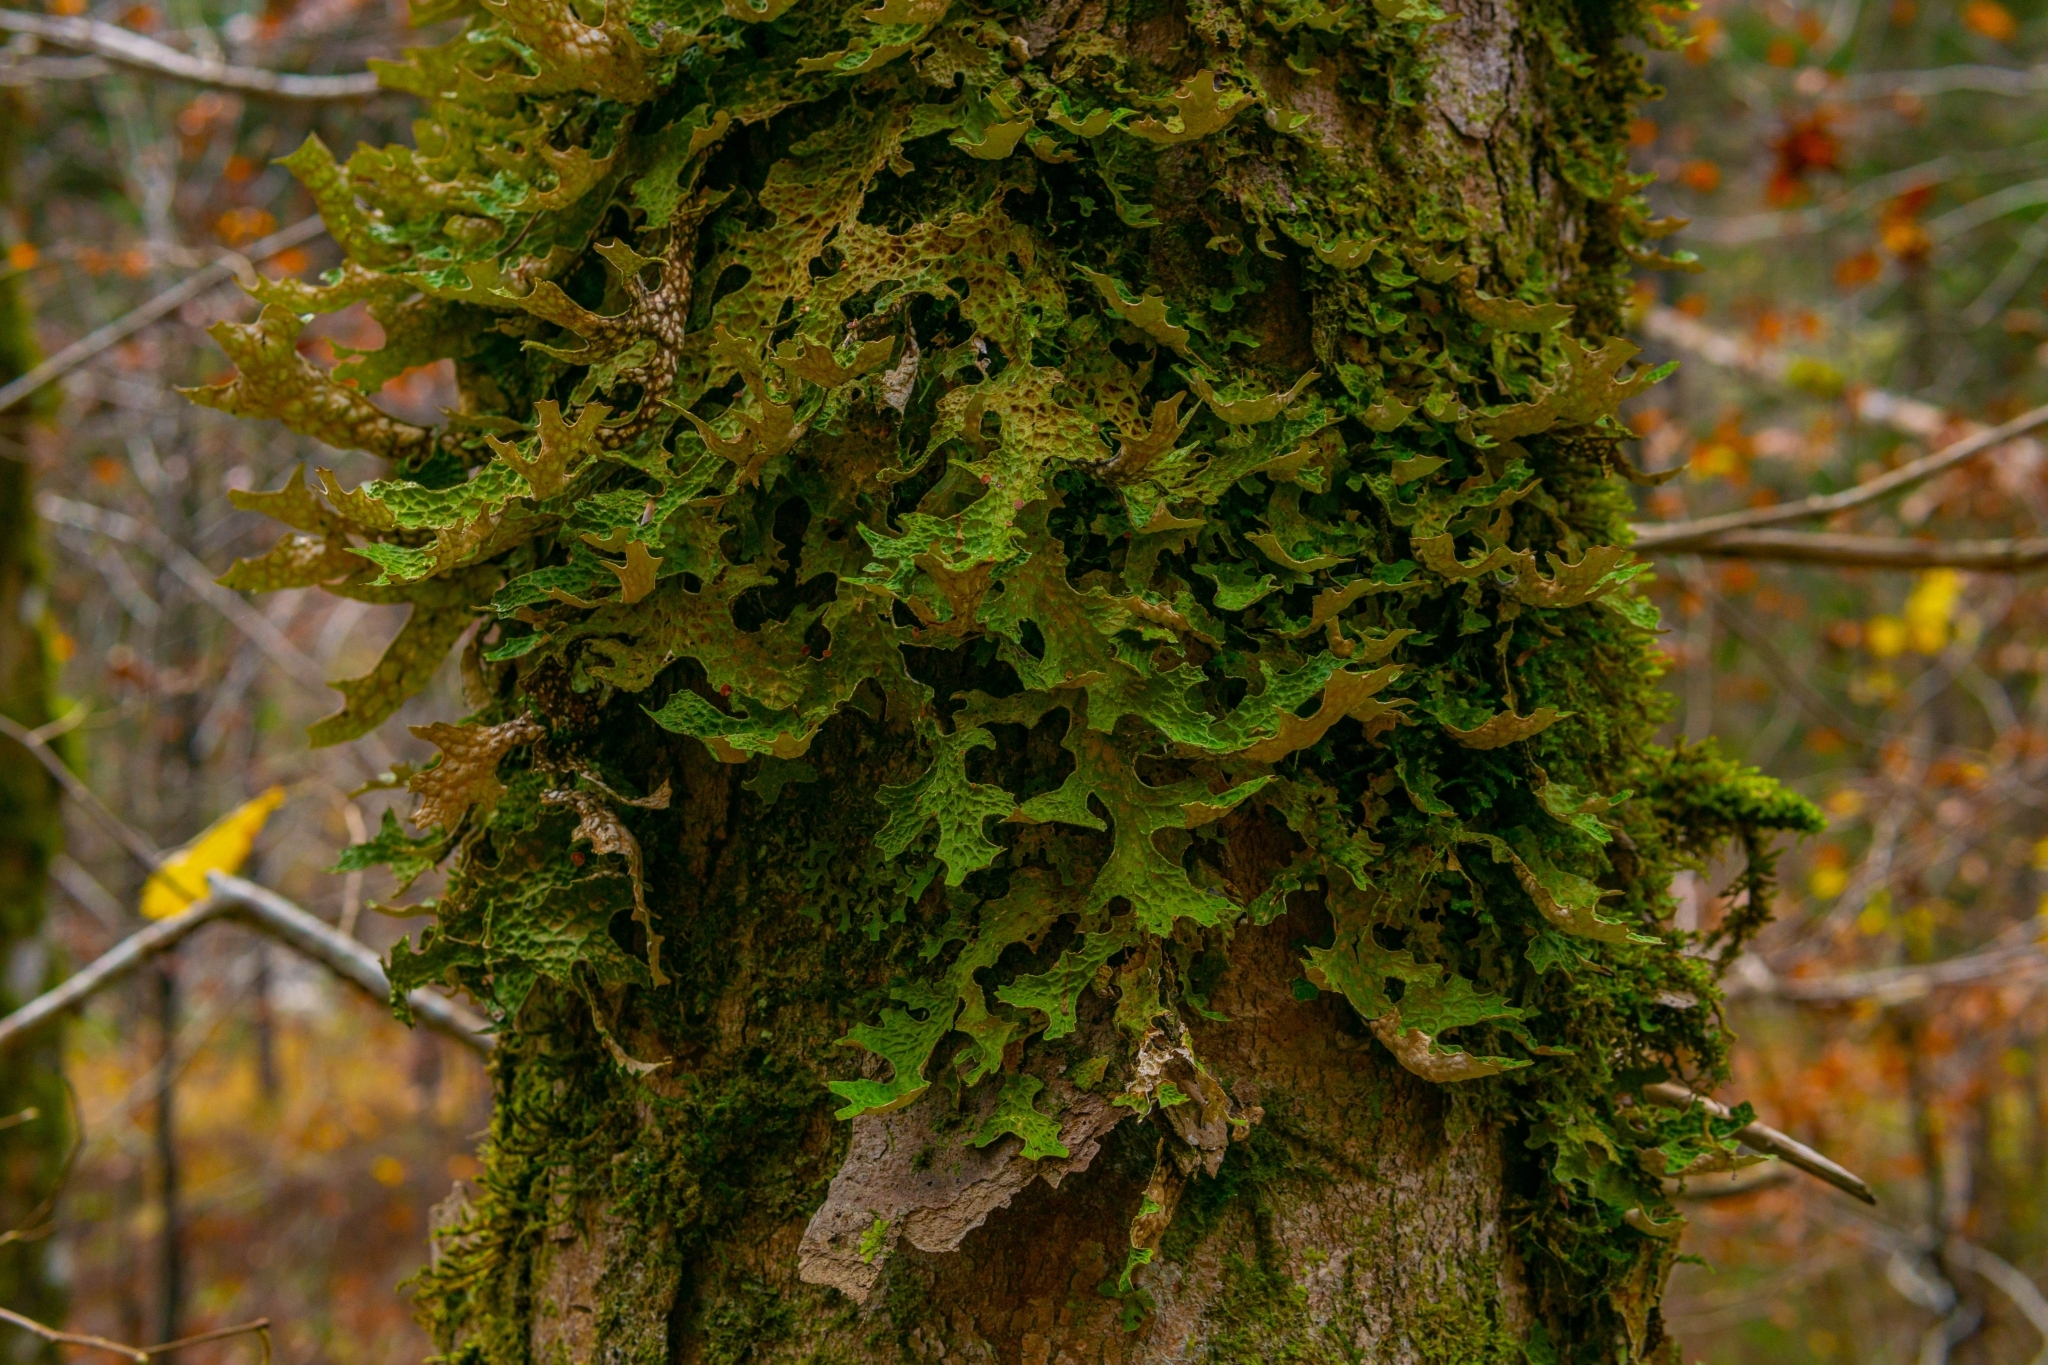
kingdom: Fungi
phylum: Ascomycota
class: Lecanoromycetes
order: Peltigerales
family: Lobariaceae
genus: Lobaria
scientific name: Lobaria pulmonaria
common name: Lungwort
